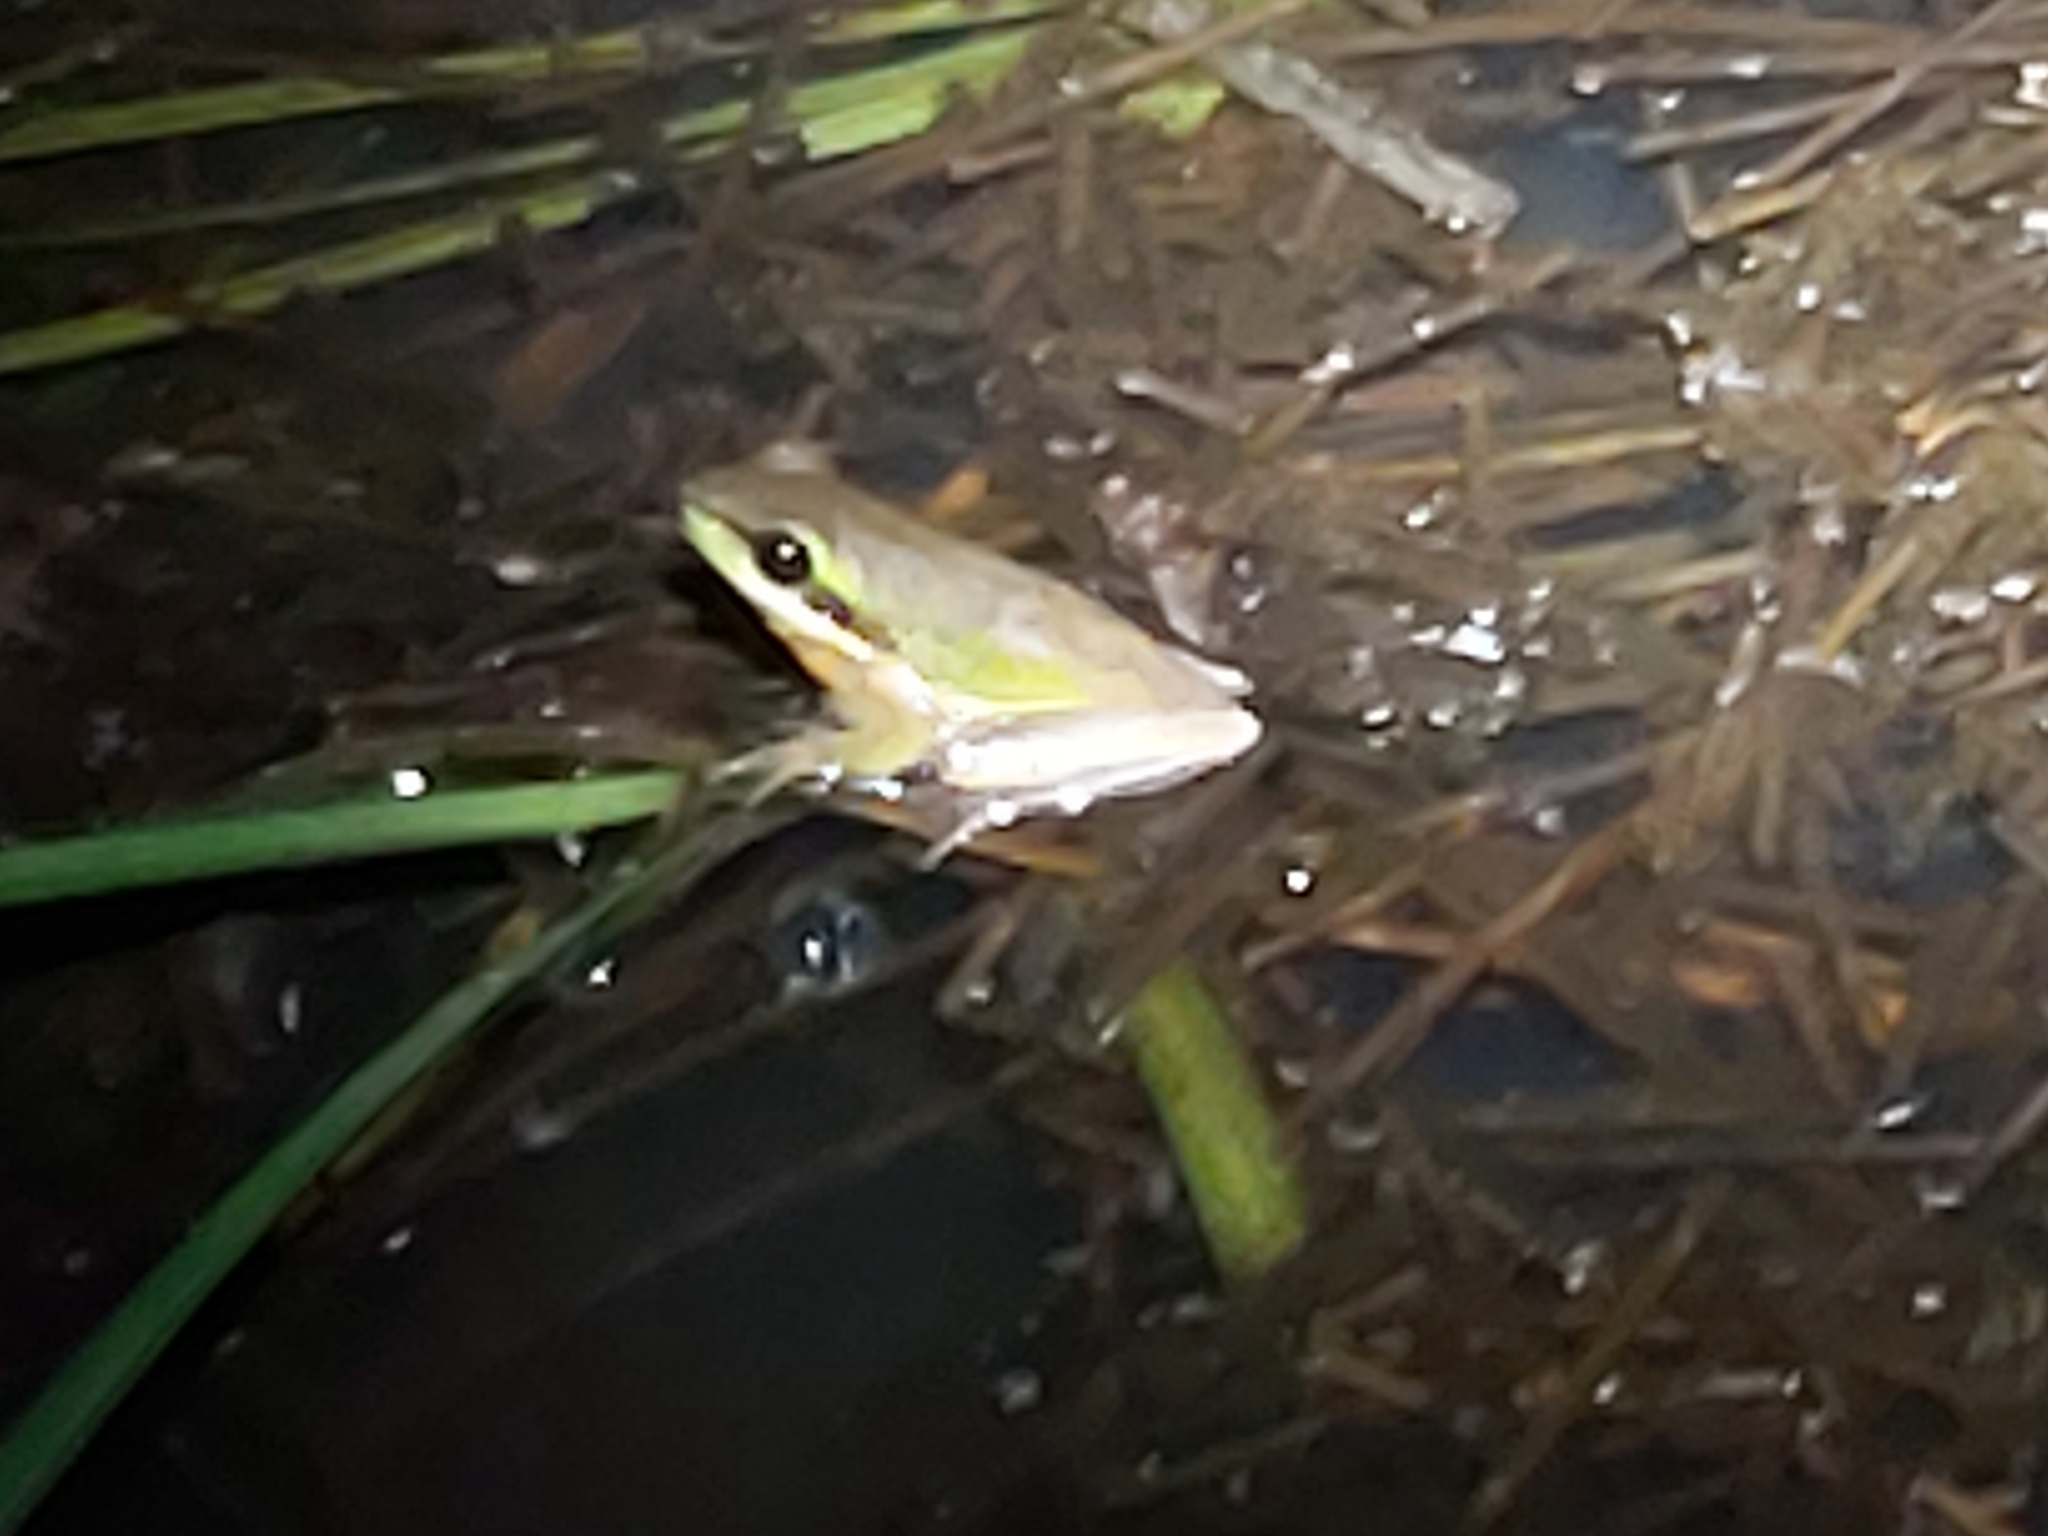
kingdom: Animalia
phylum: Chordata
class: Amphibia
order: Anura
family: Pelodryadidae
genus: Litoria
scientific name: Litoria fallax
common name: Eastern dwarf treefrog
